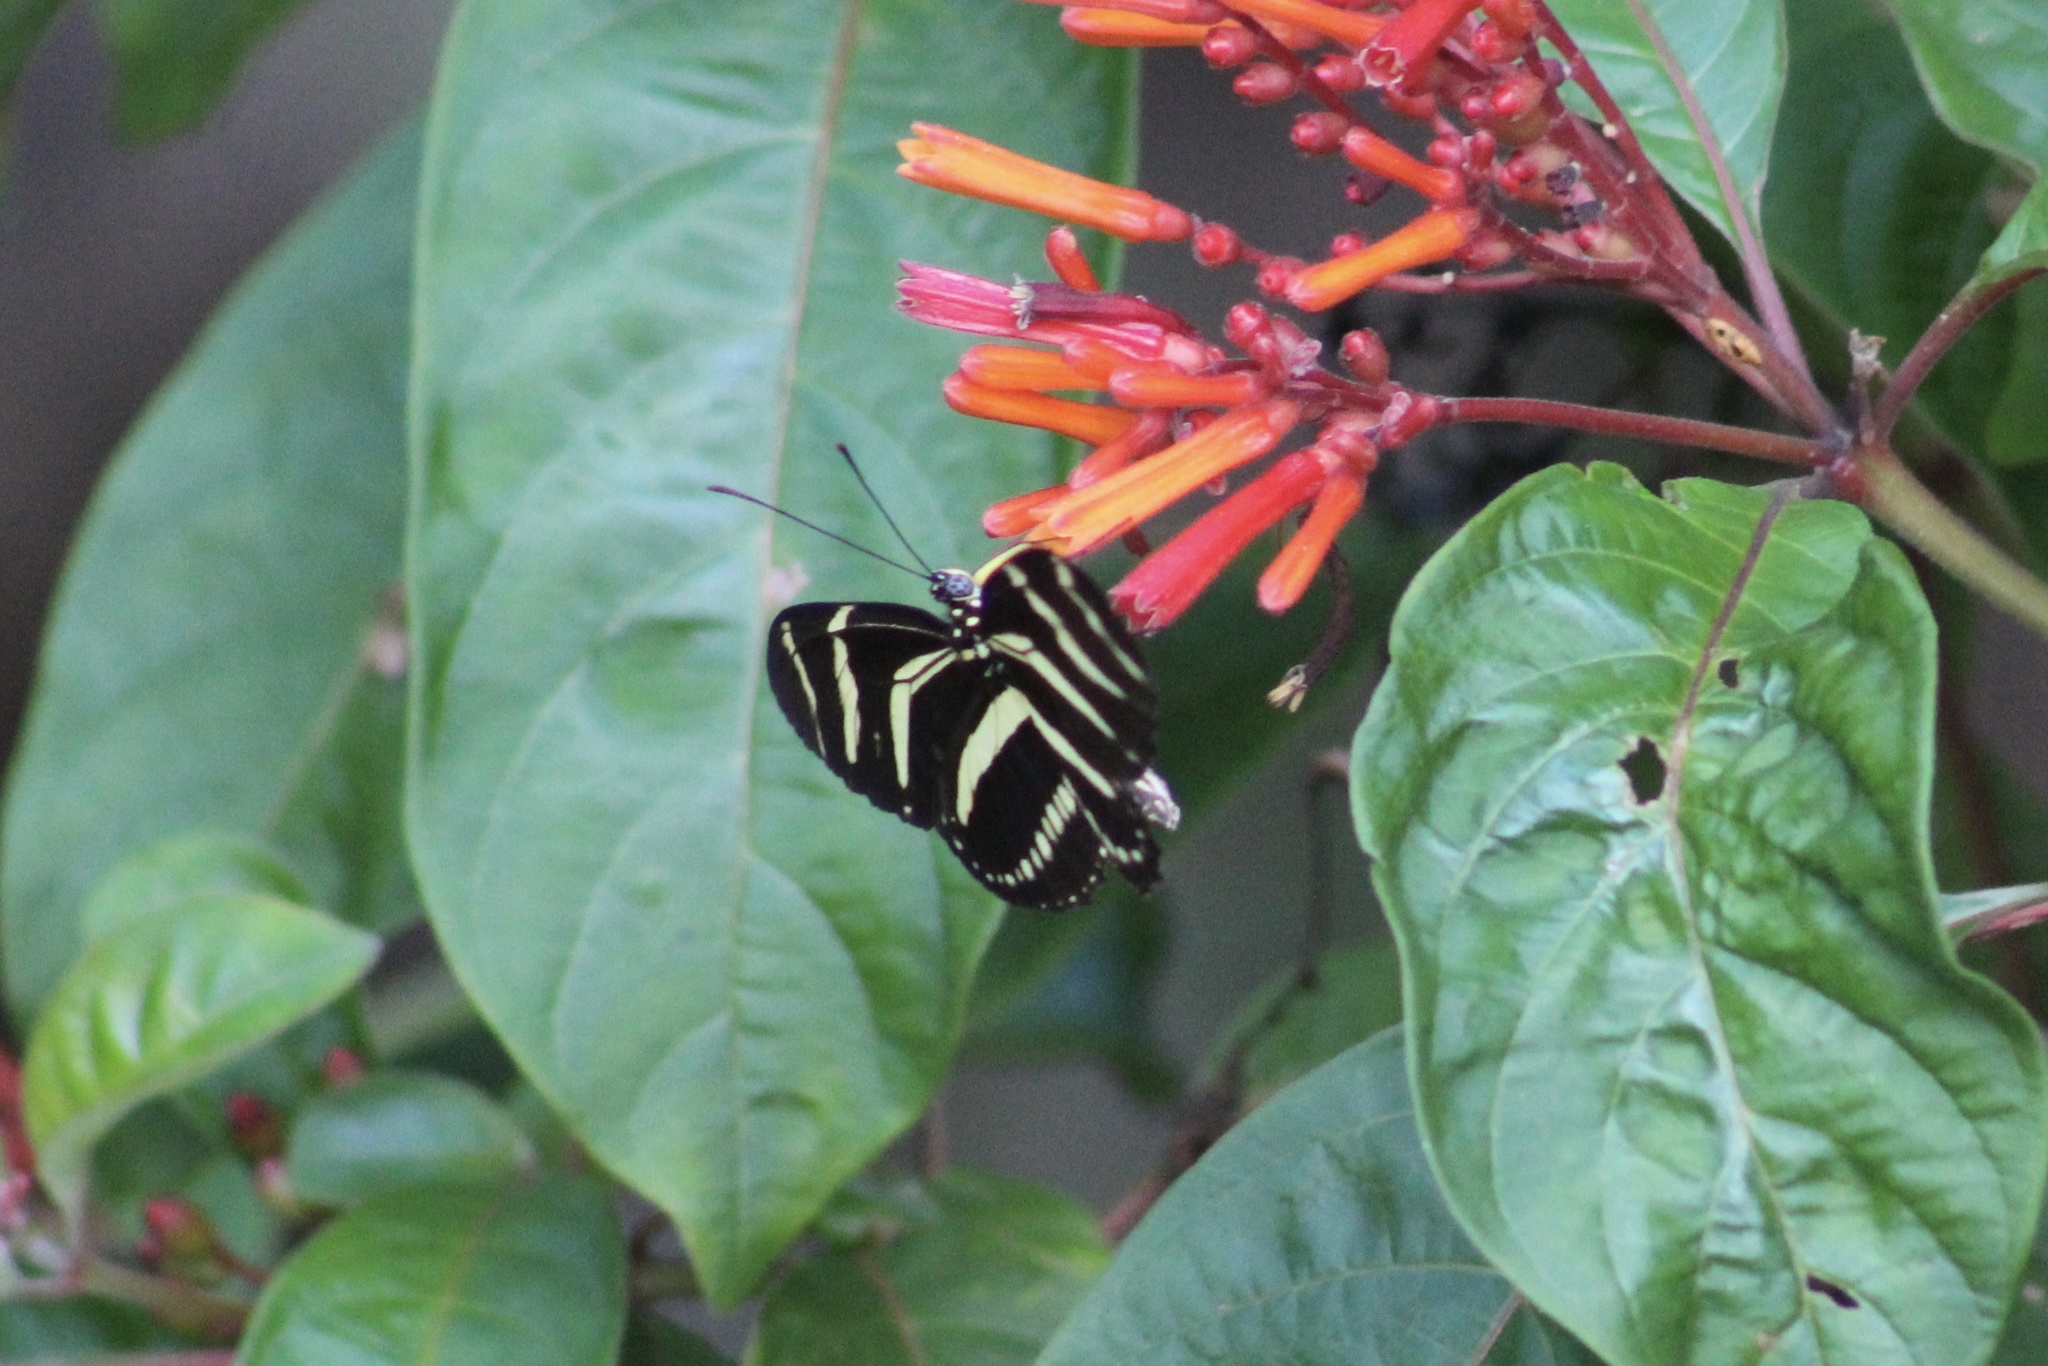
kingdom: Animalia
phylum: Arthropoda
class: Insecta
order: Lepidoptera
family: Nymphalidae
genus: Heliconius
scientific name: Heliconius charithonia
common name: Zebra long wing
